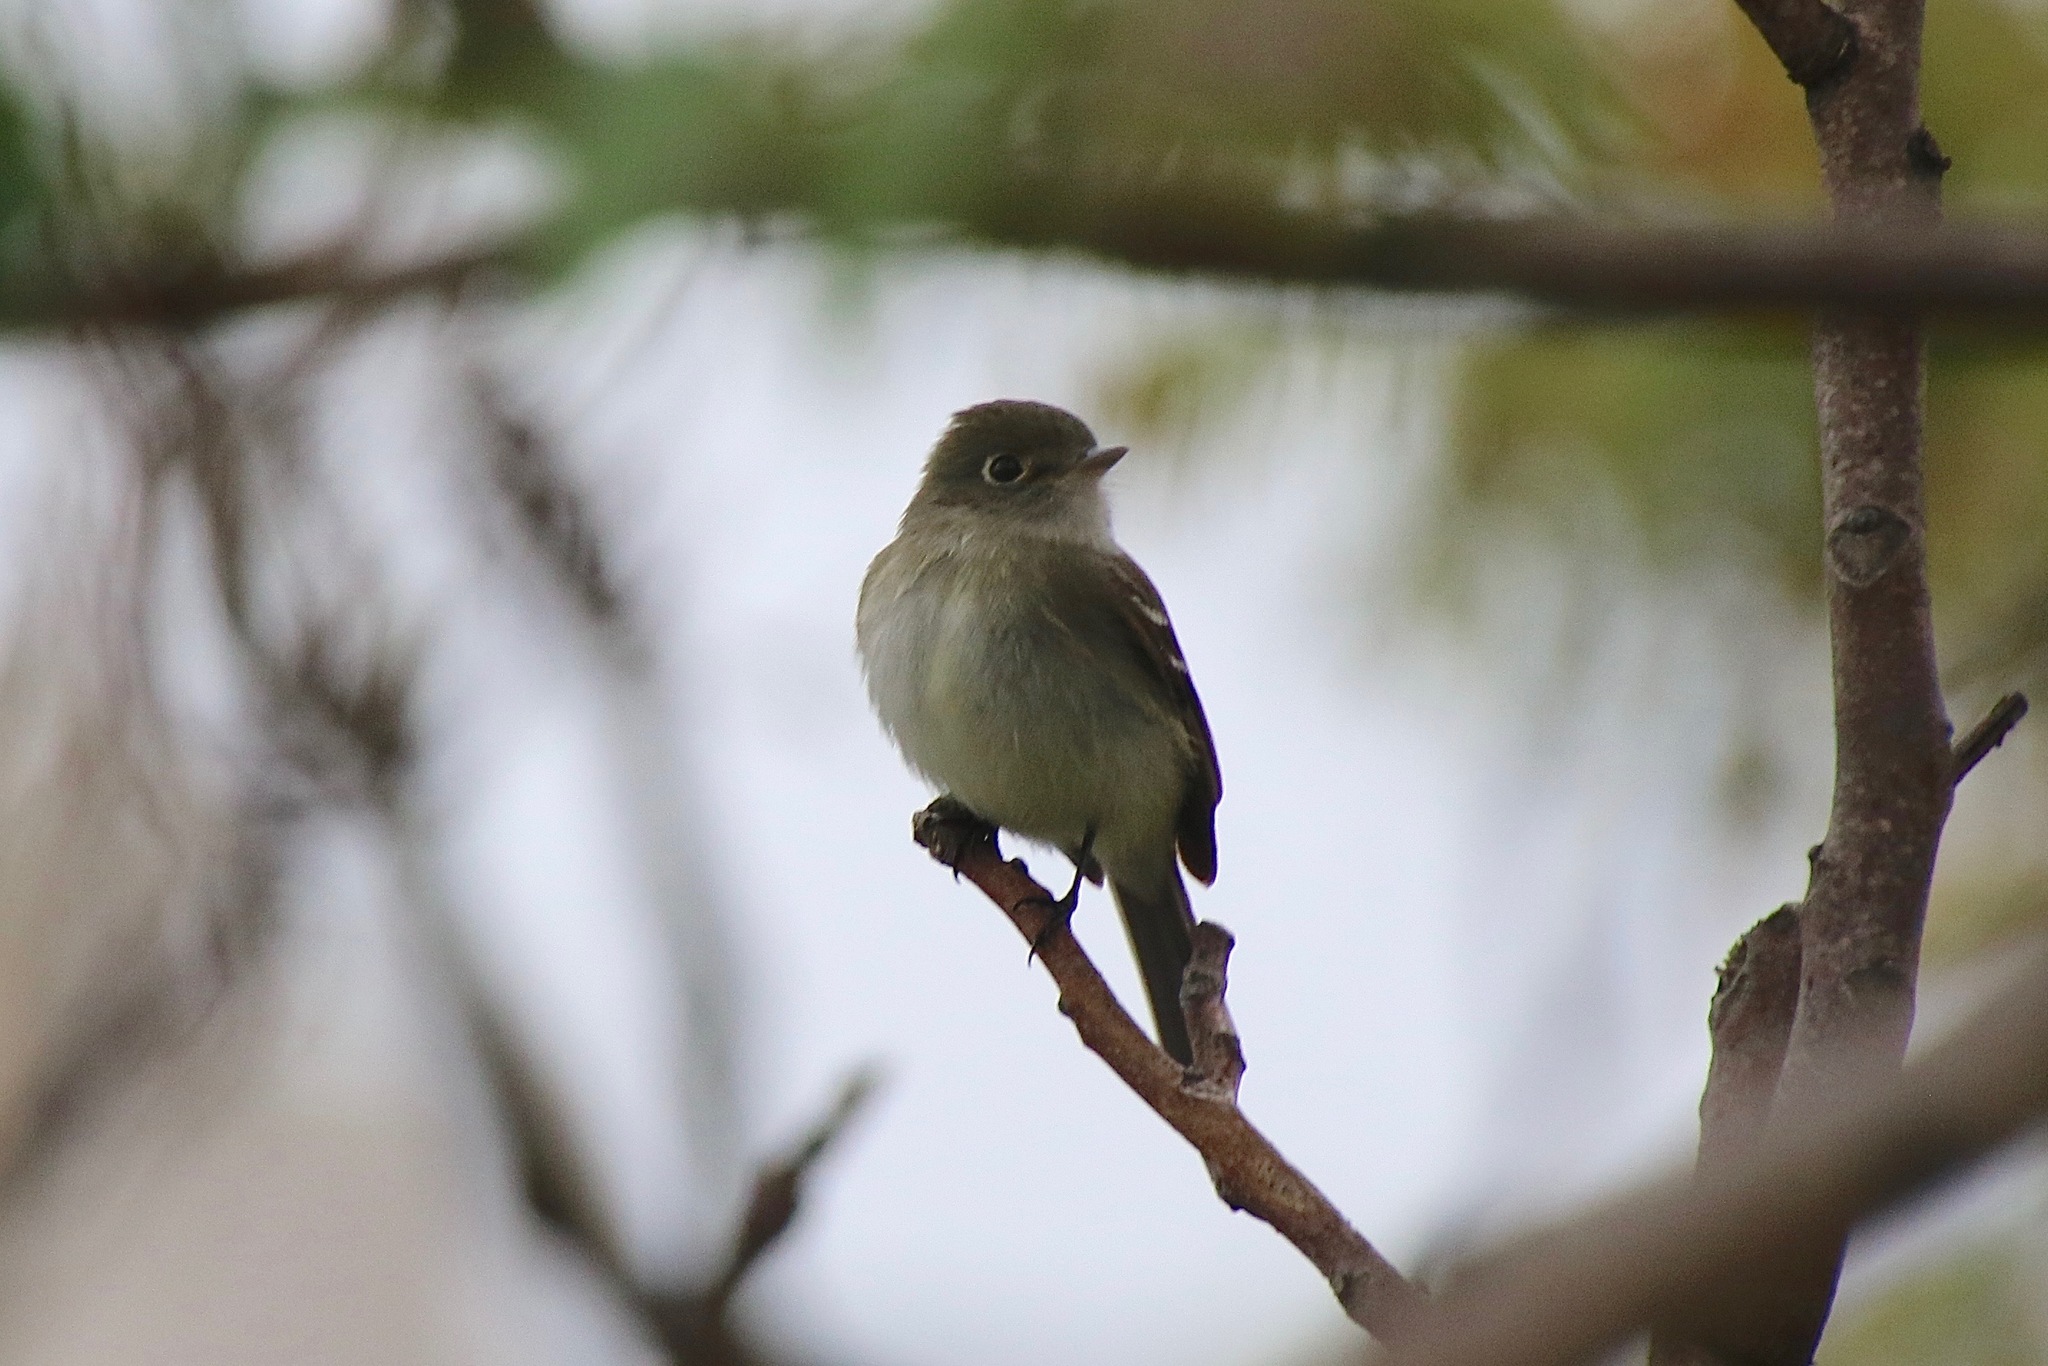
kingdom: Animalia
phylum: Chordata
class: Aves
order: Passeriformes
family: Tyrannidae
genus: Empidonax
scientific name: Empidonax minimus
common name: Least flycatcher
